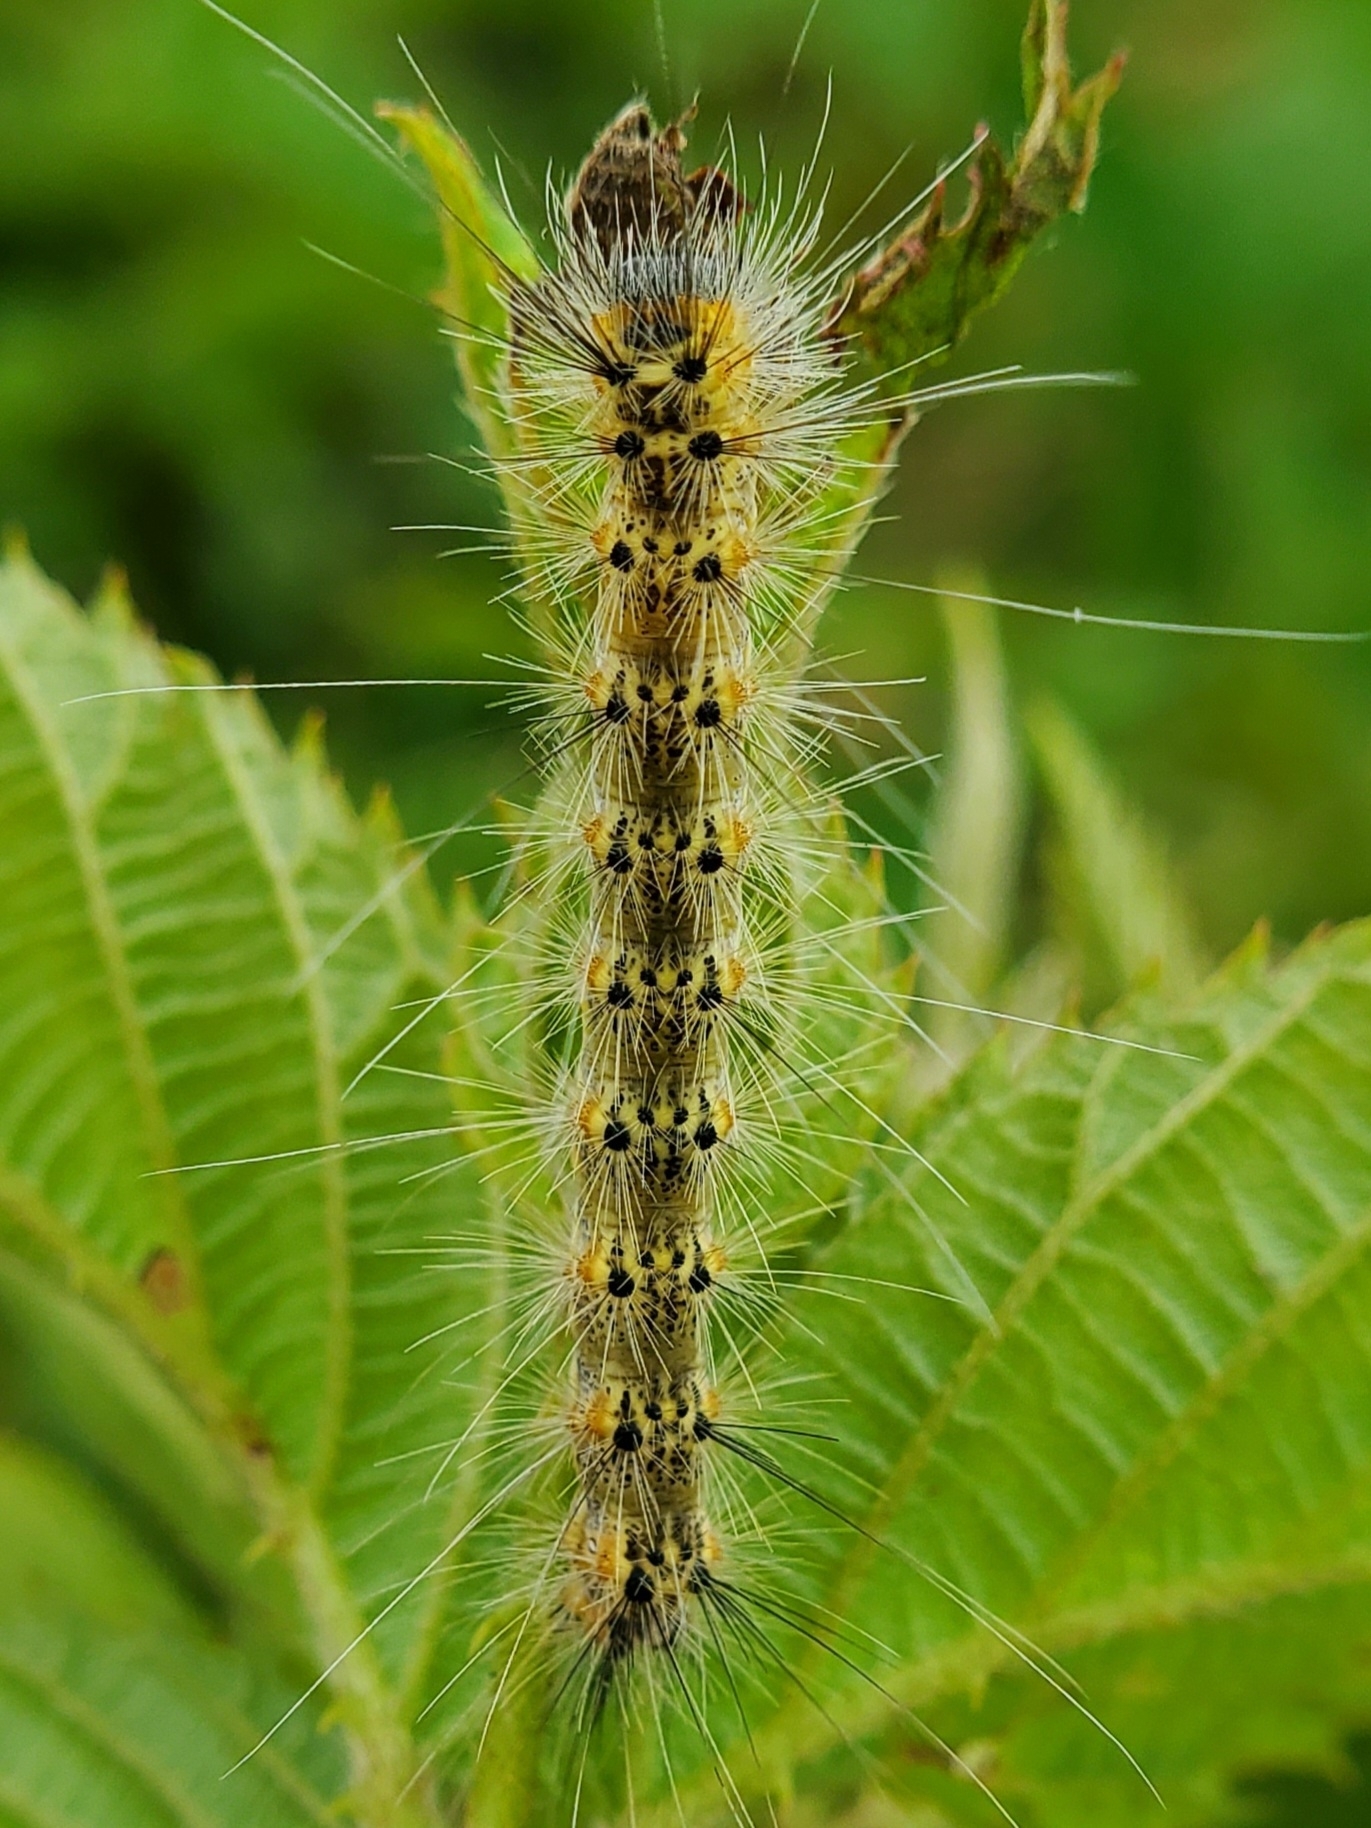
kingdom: Animalia
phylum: Arthropoda
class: Insecta
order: Lepidoptera
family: Erebidae
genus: Hyphantria
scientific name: Hyphantria cunea
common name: American white moth
